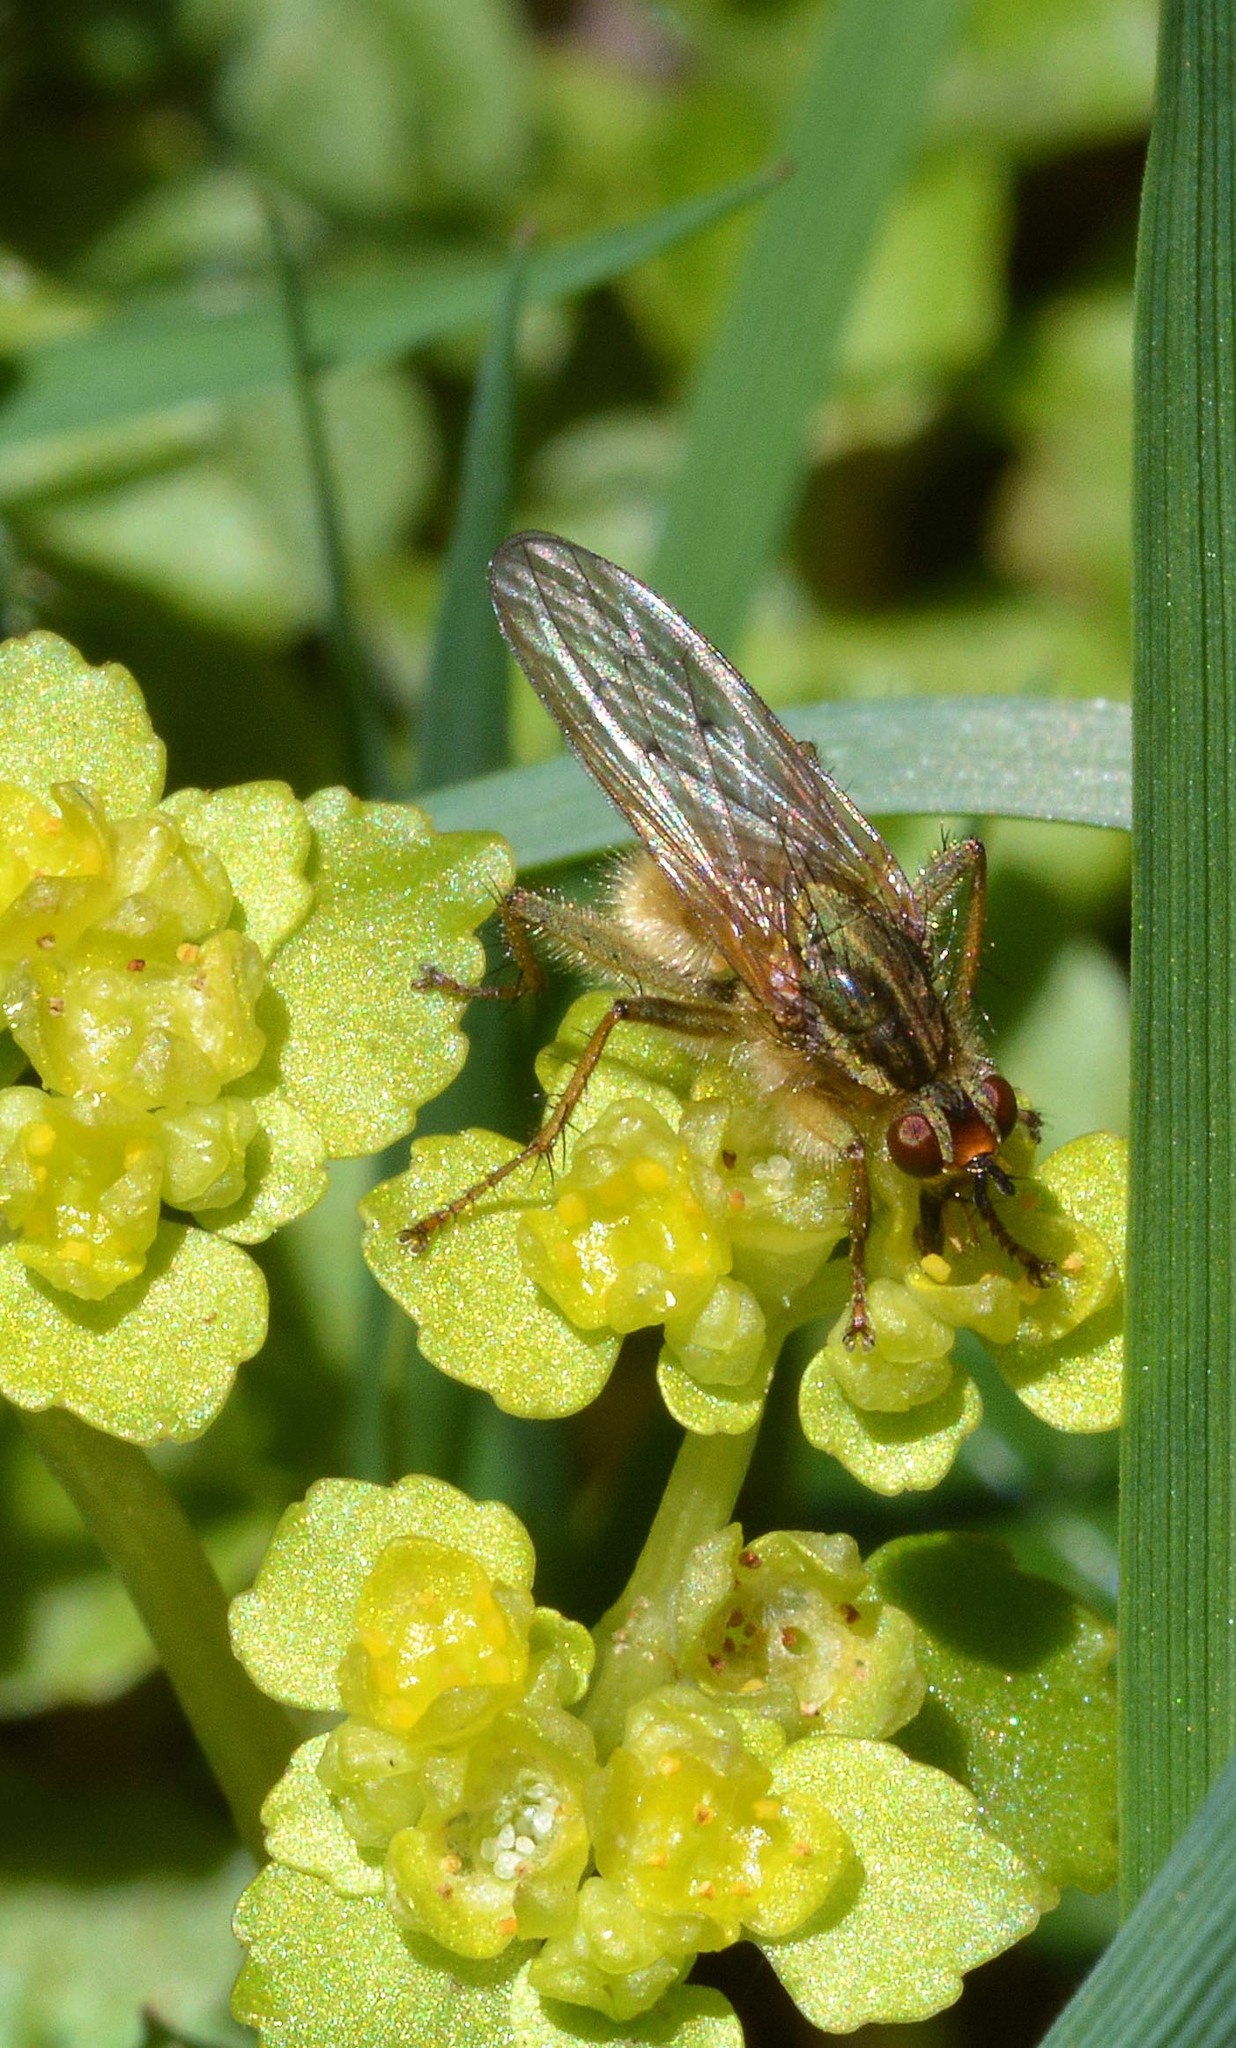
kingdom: Animalia
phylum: Arthropoda
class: Insecta
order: Diptera
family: Scathophagidae
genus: Scathophaga
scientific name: Scathophaga stercoraria
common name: Yellow dung fly
